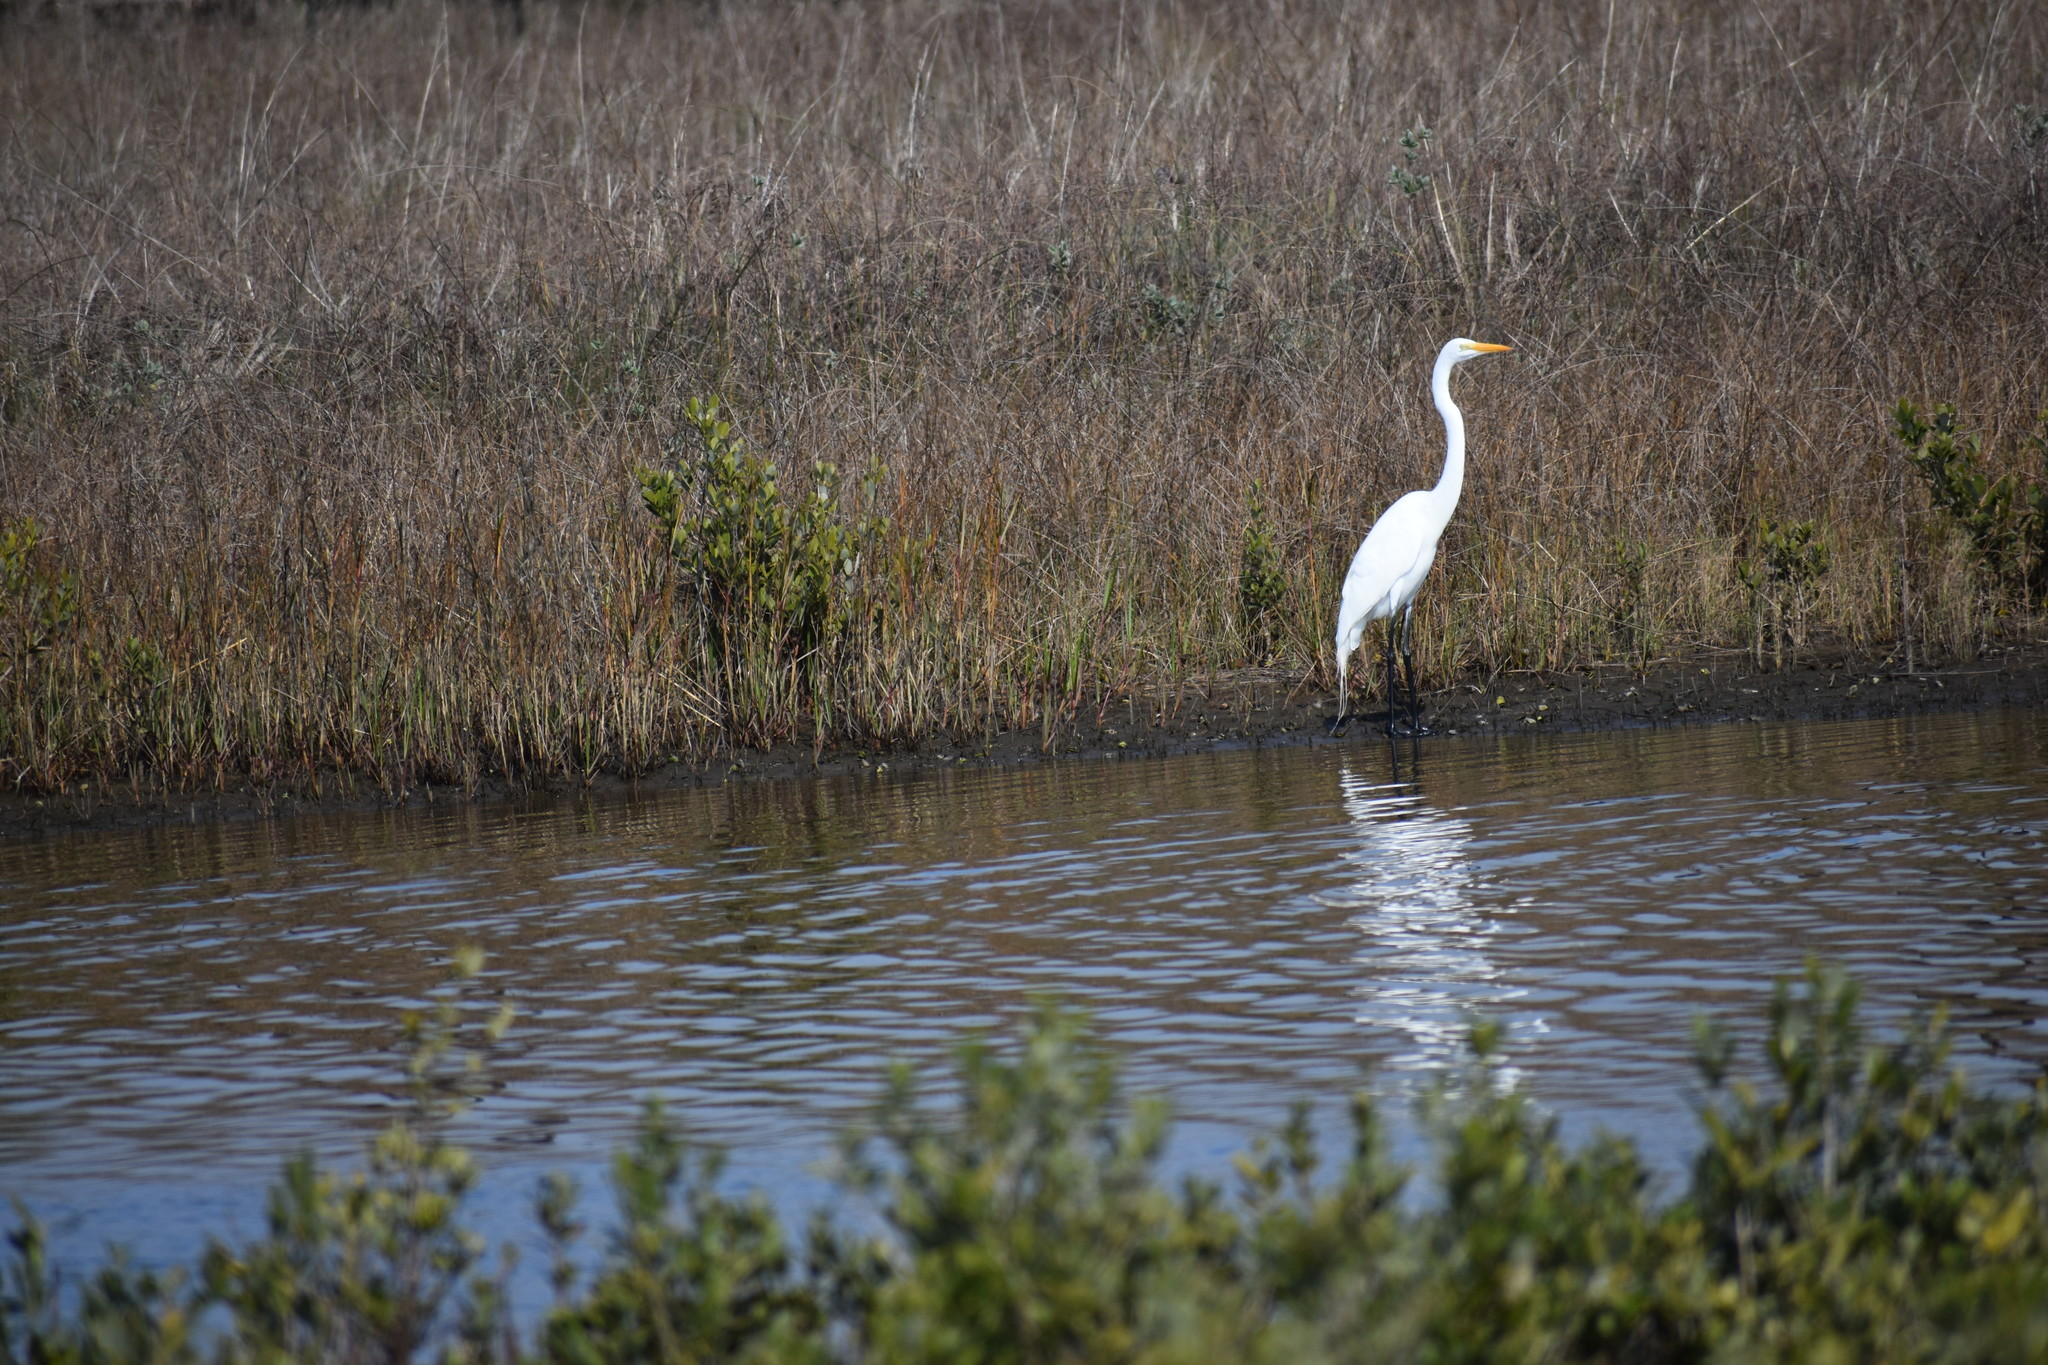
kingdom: Animalia
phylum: Chordata
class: Aves
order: Pelecaniformes
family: Ardeidae
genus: Ardea
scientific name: Ardea alba
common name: Great egret
